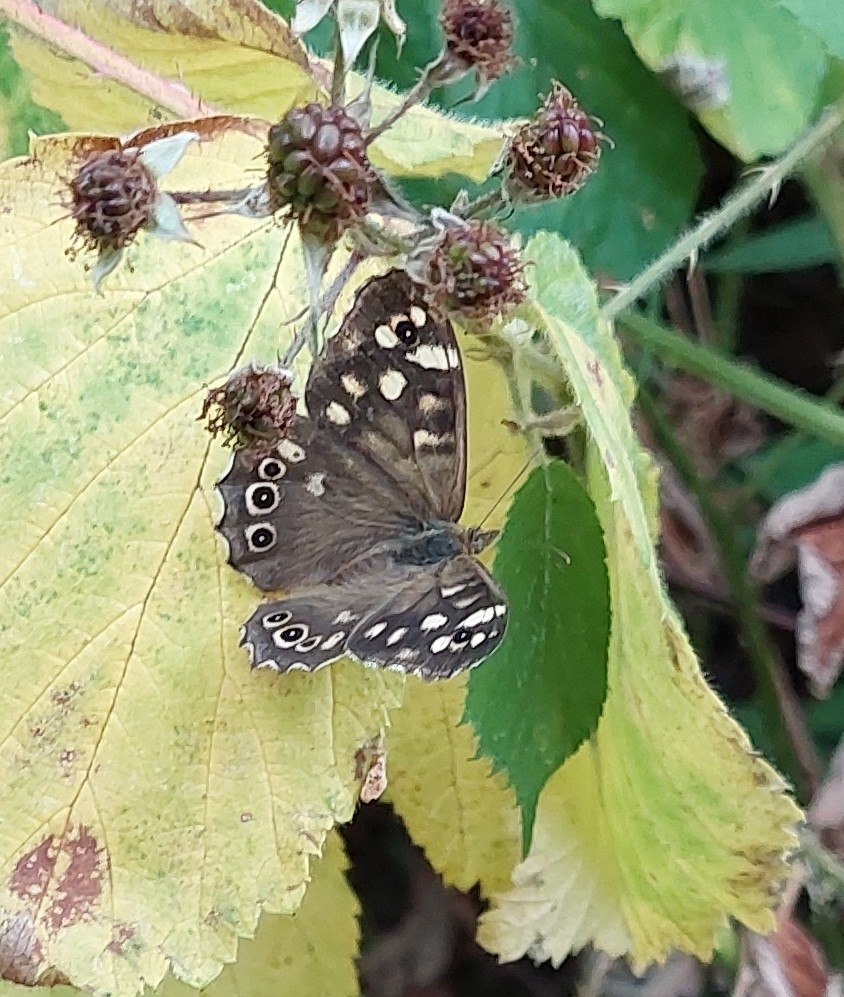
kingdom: Animalia
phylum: Arthropoda
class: Insecta
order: Lepidoptera
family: Nymphalidae
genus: Pararge
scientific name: Pararge aegeria
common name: Speckled wood
